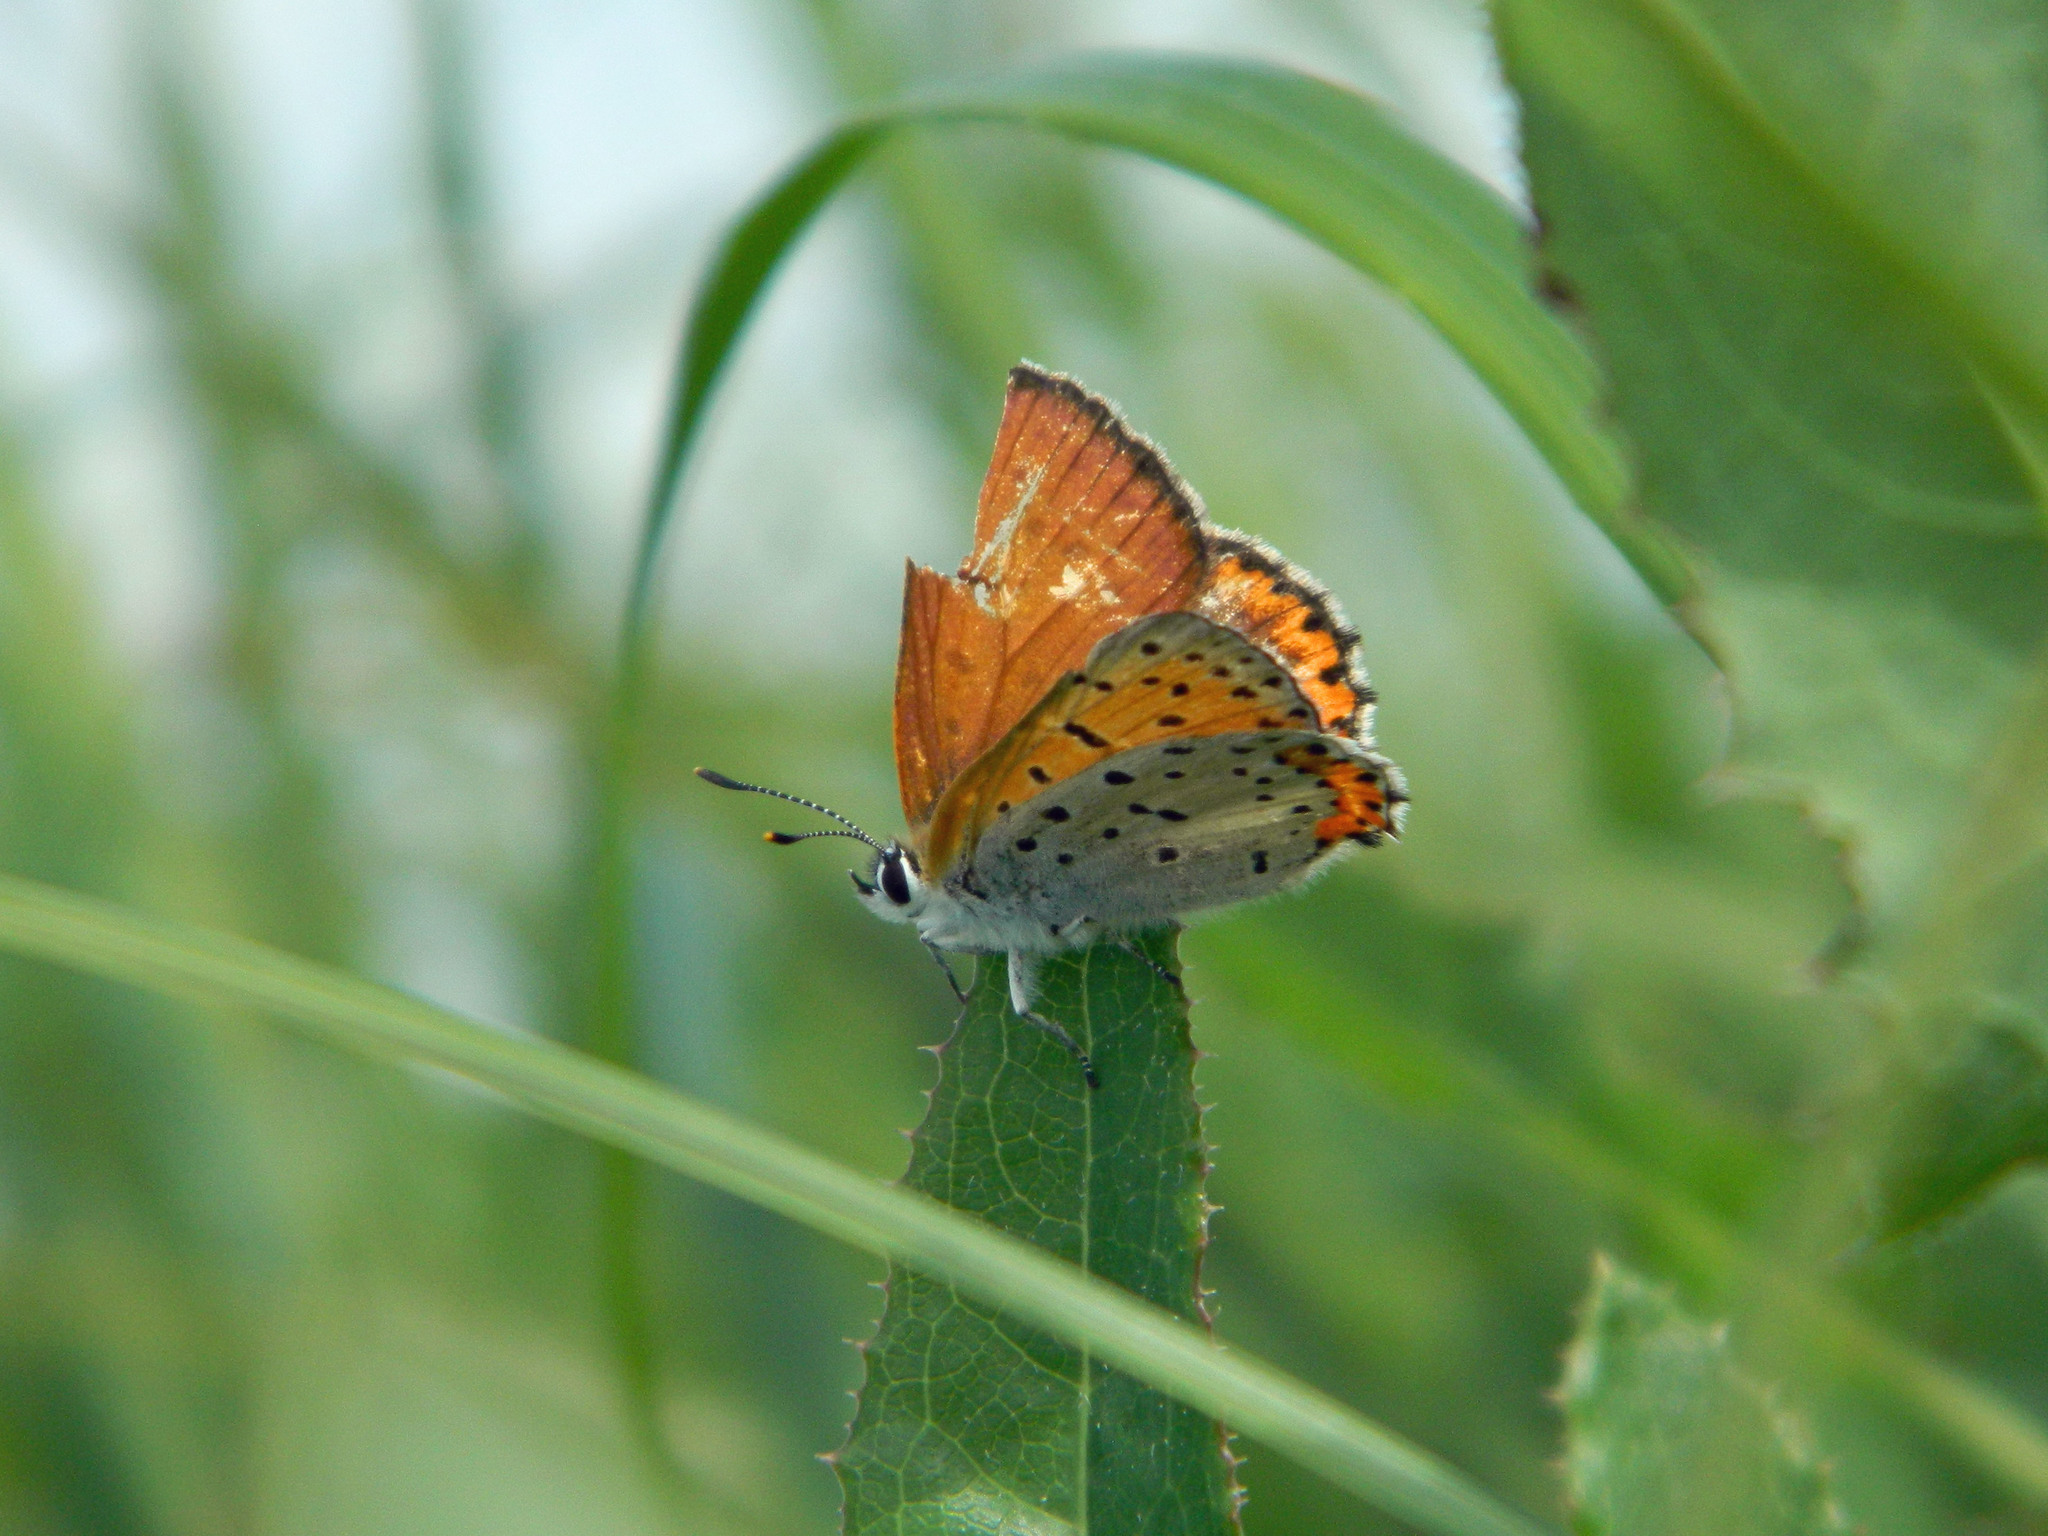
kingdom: Animalia
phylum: Arthropoda
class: Insecta
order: Lepidoptera
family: Lycaenidae
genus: Tharsalea
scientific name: Tharsalea hyllus
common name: Bronze copper
